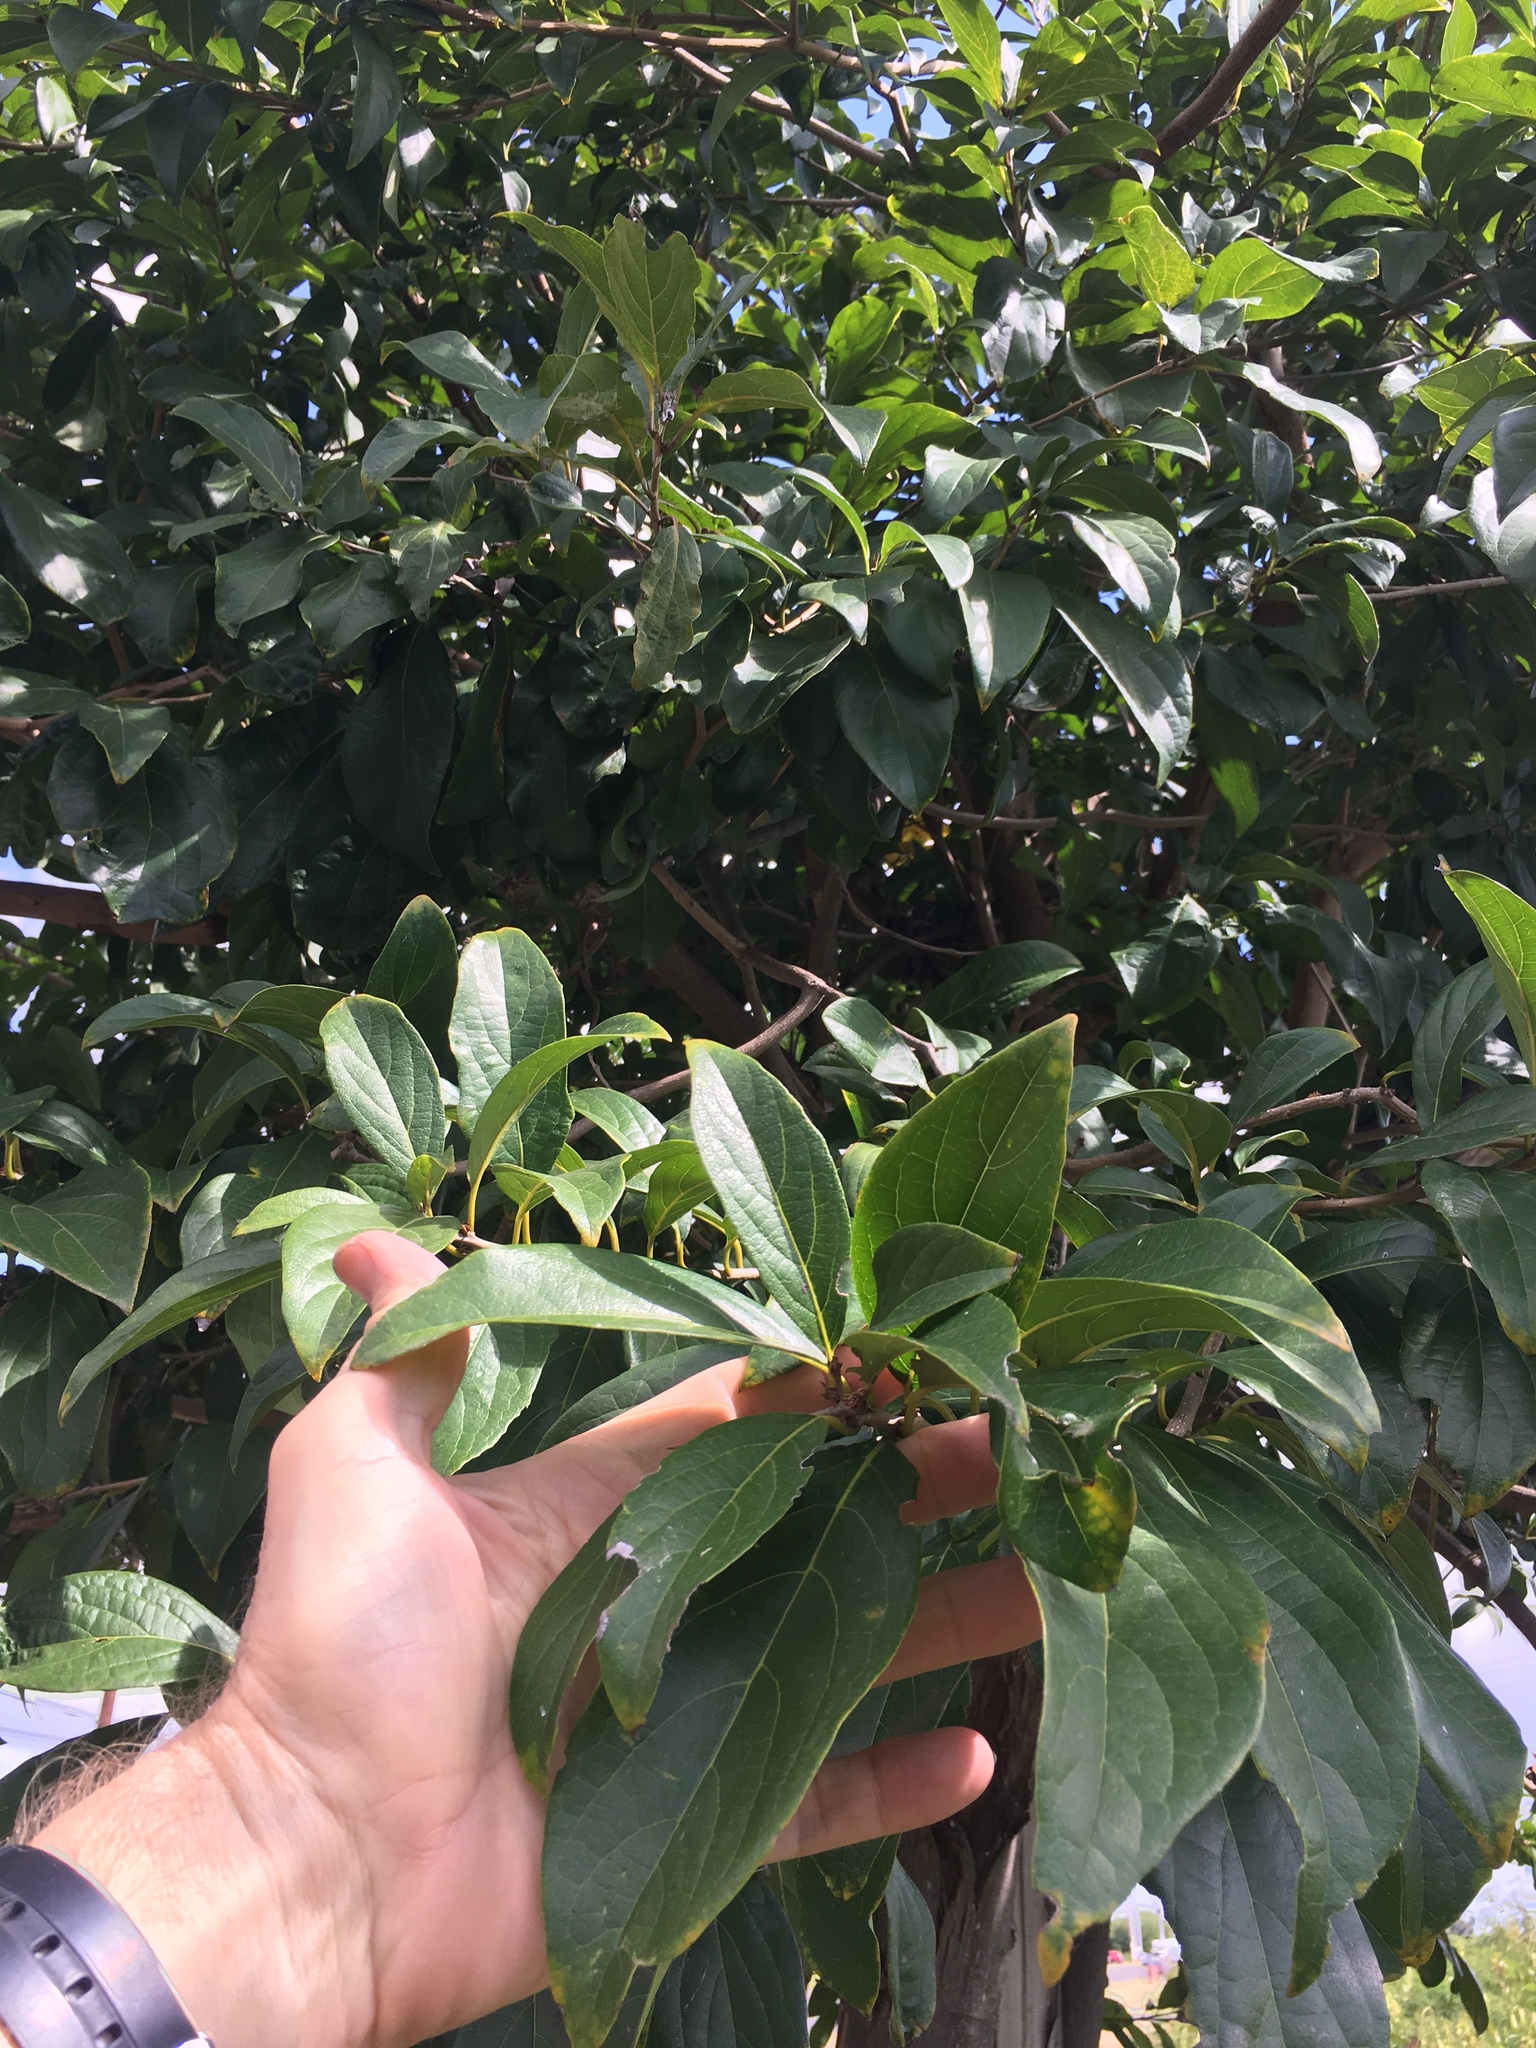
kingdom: Plantae
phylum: Tracheophyta
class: Magnoliopsida
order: Laurales
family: Lauraceae
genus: Persea
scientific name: Persea americana
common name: Avocado
